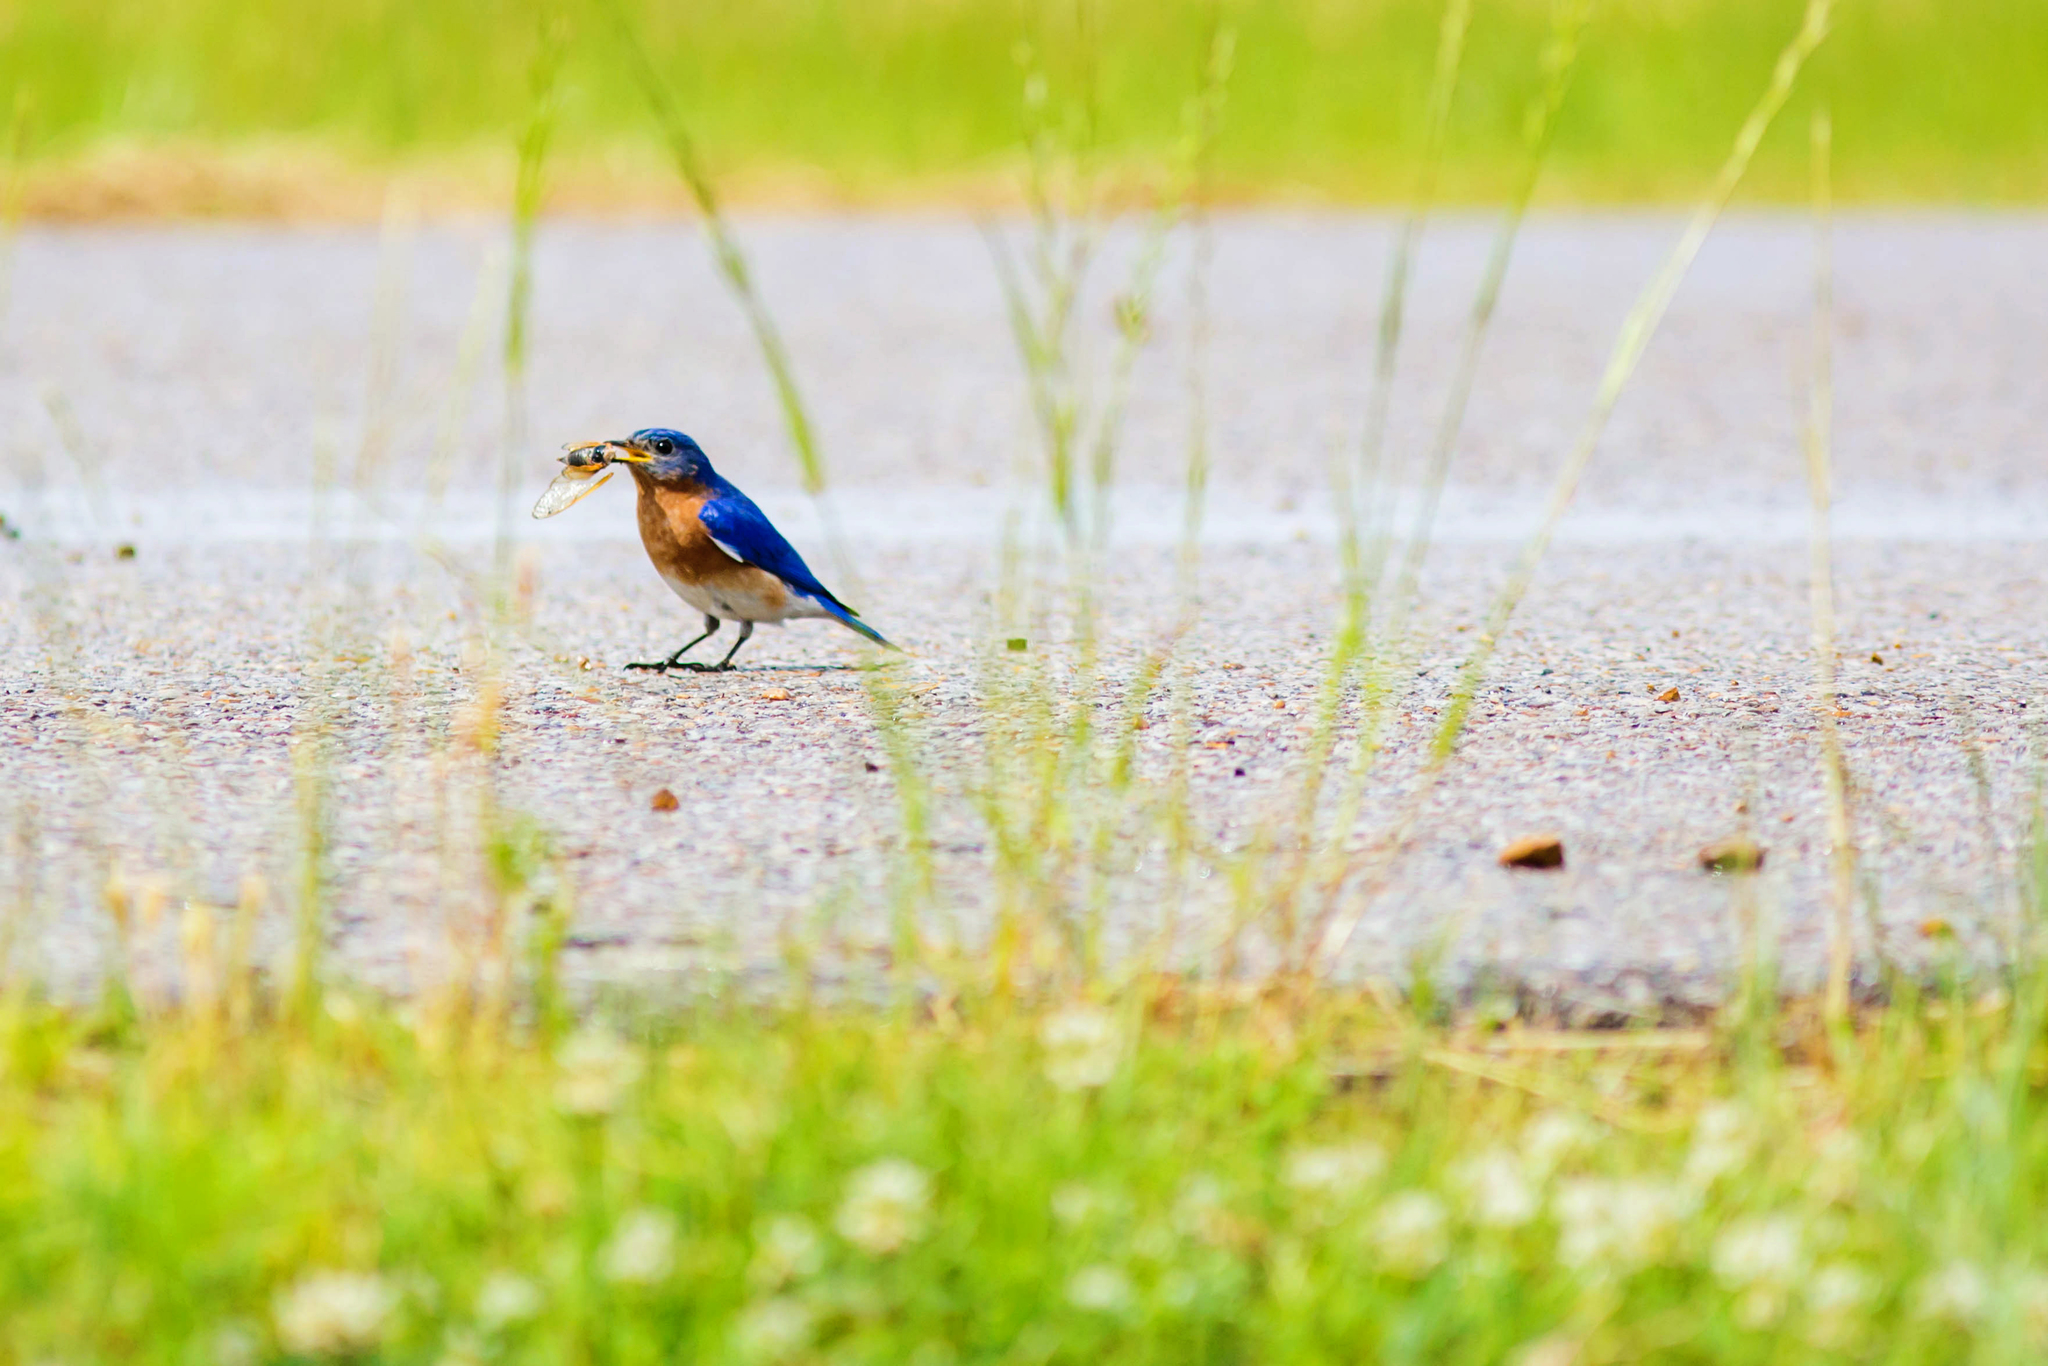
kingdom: Animalia
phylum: Chordata
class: Aves
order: Passeriformes
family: Turdidae
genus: Sialia
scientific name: Sialia sialis
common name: Eastern bluebird
